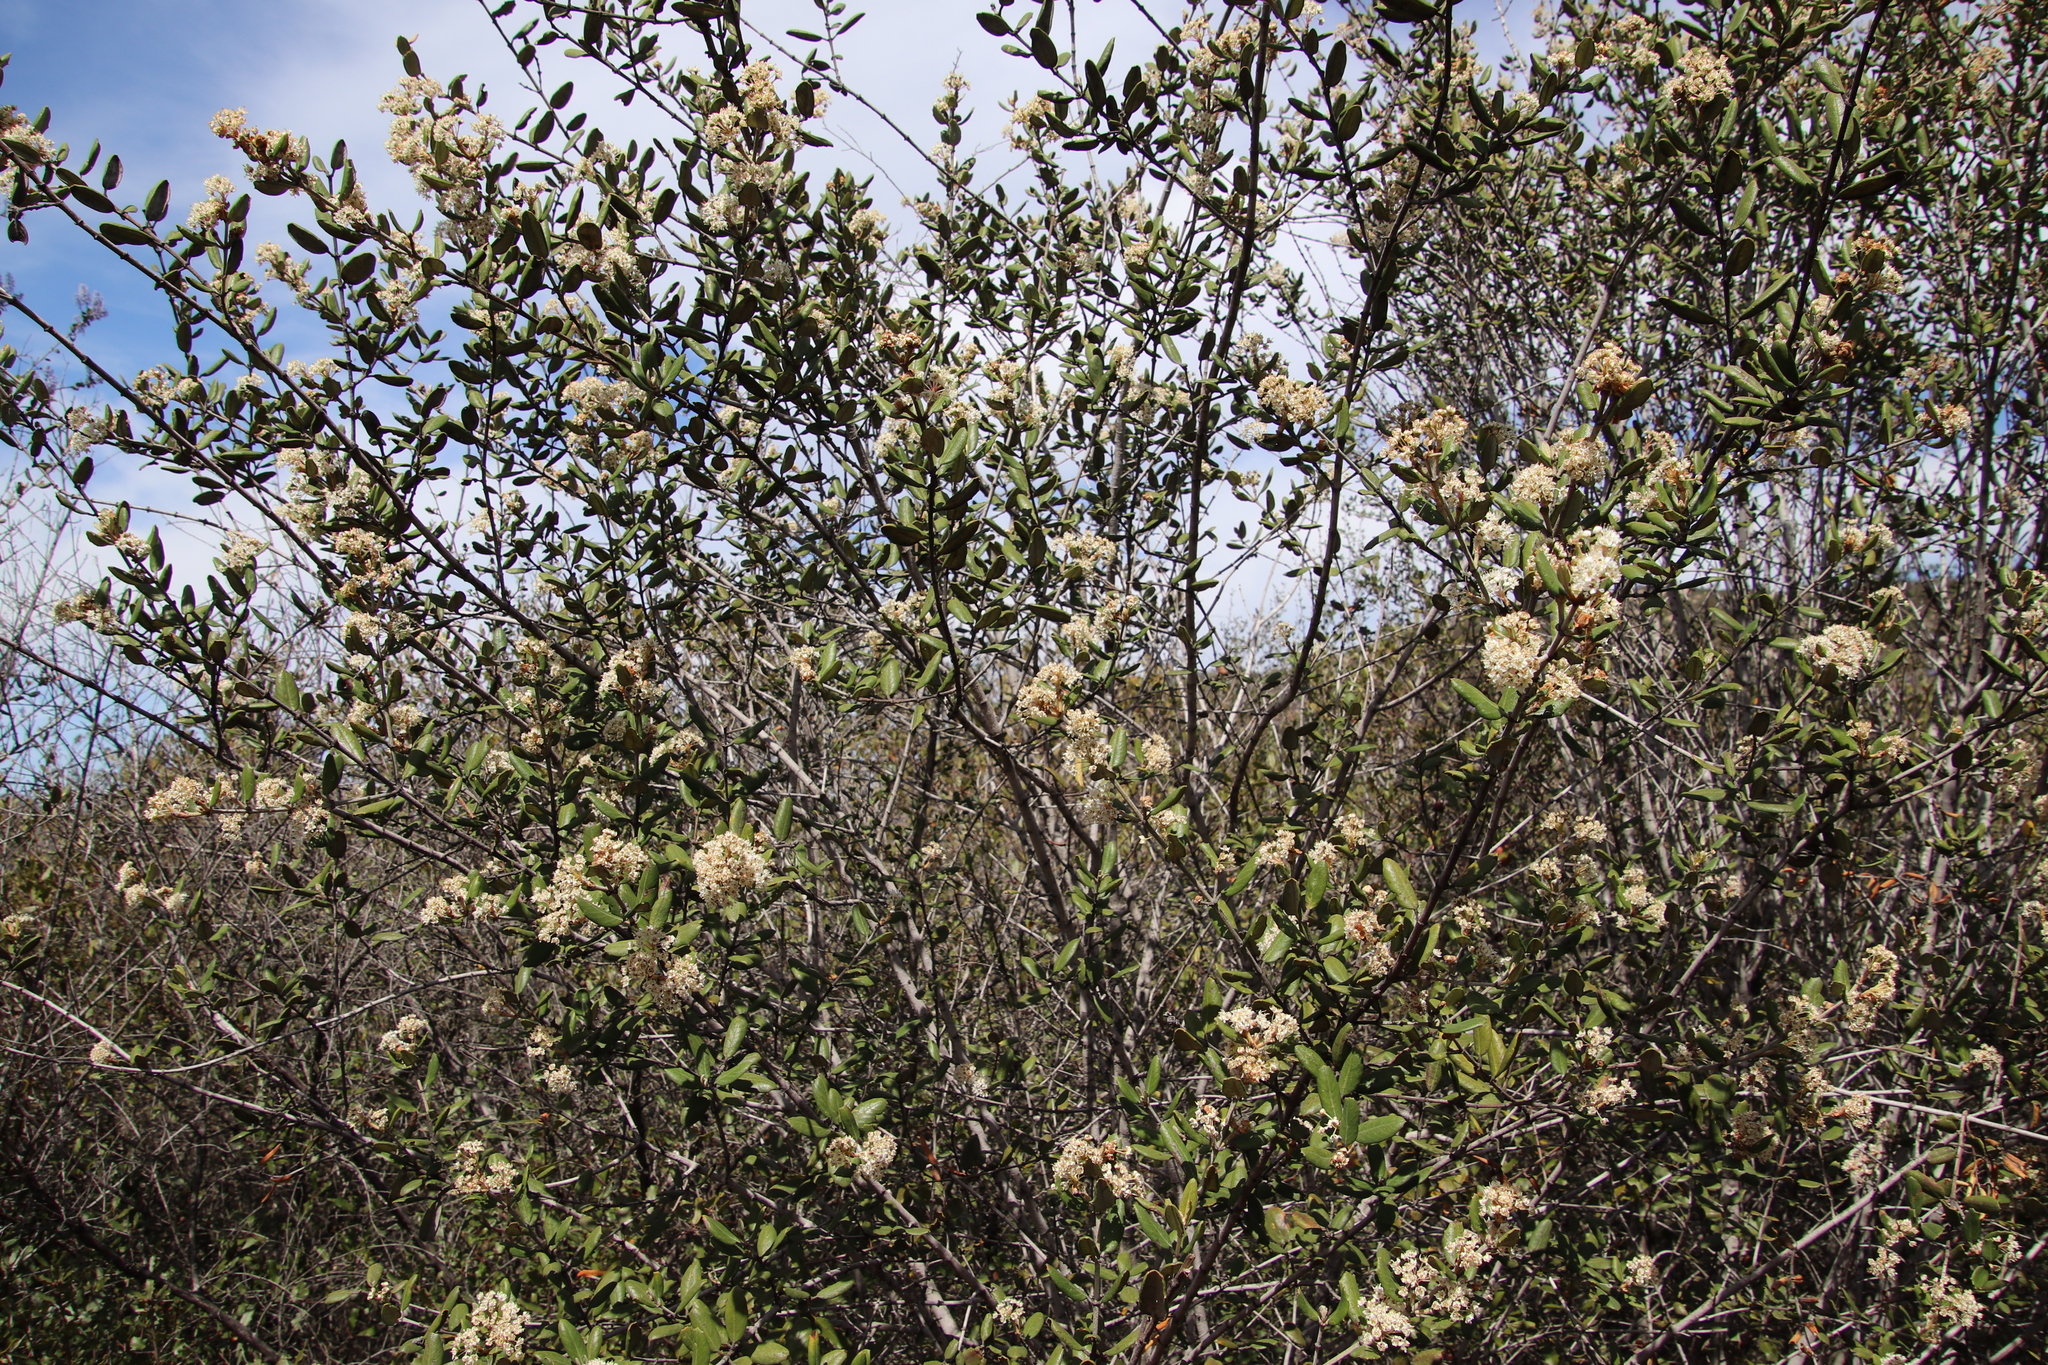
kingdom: Plantae
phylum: Tracheophyta
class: Magnoliopsida
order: Rosales
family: Rhamnaceae
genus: Ceanothus
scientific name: Ceanothus crassifolius
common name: Hoaryleaf ceanothus
